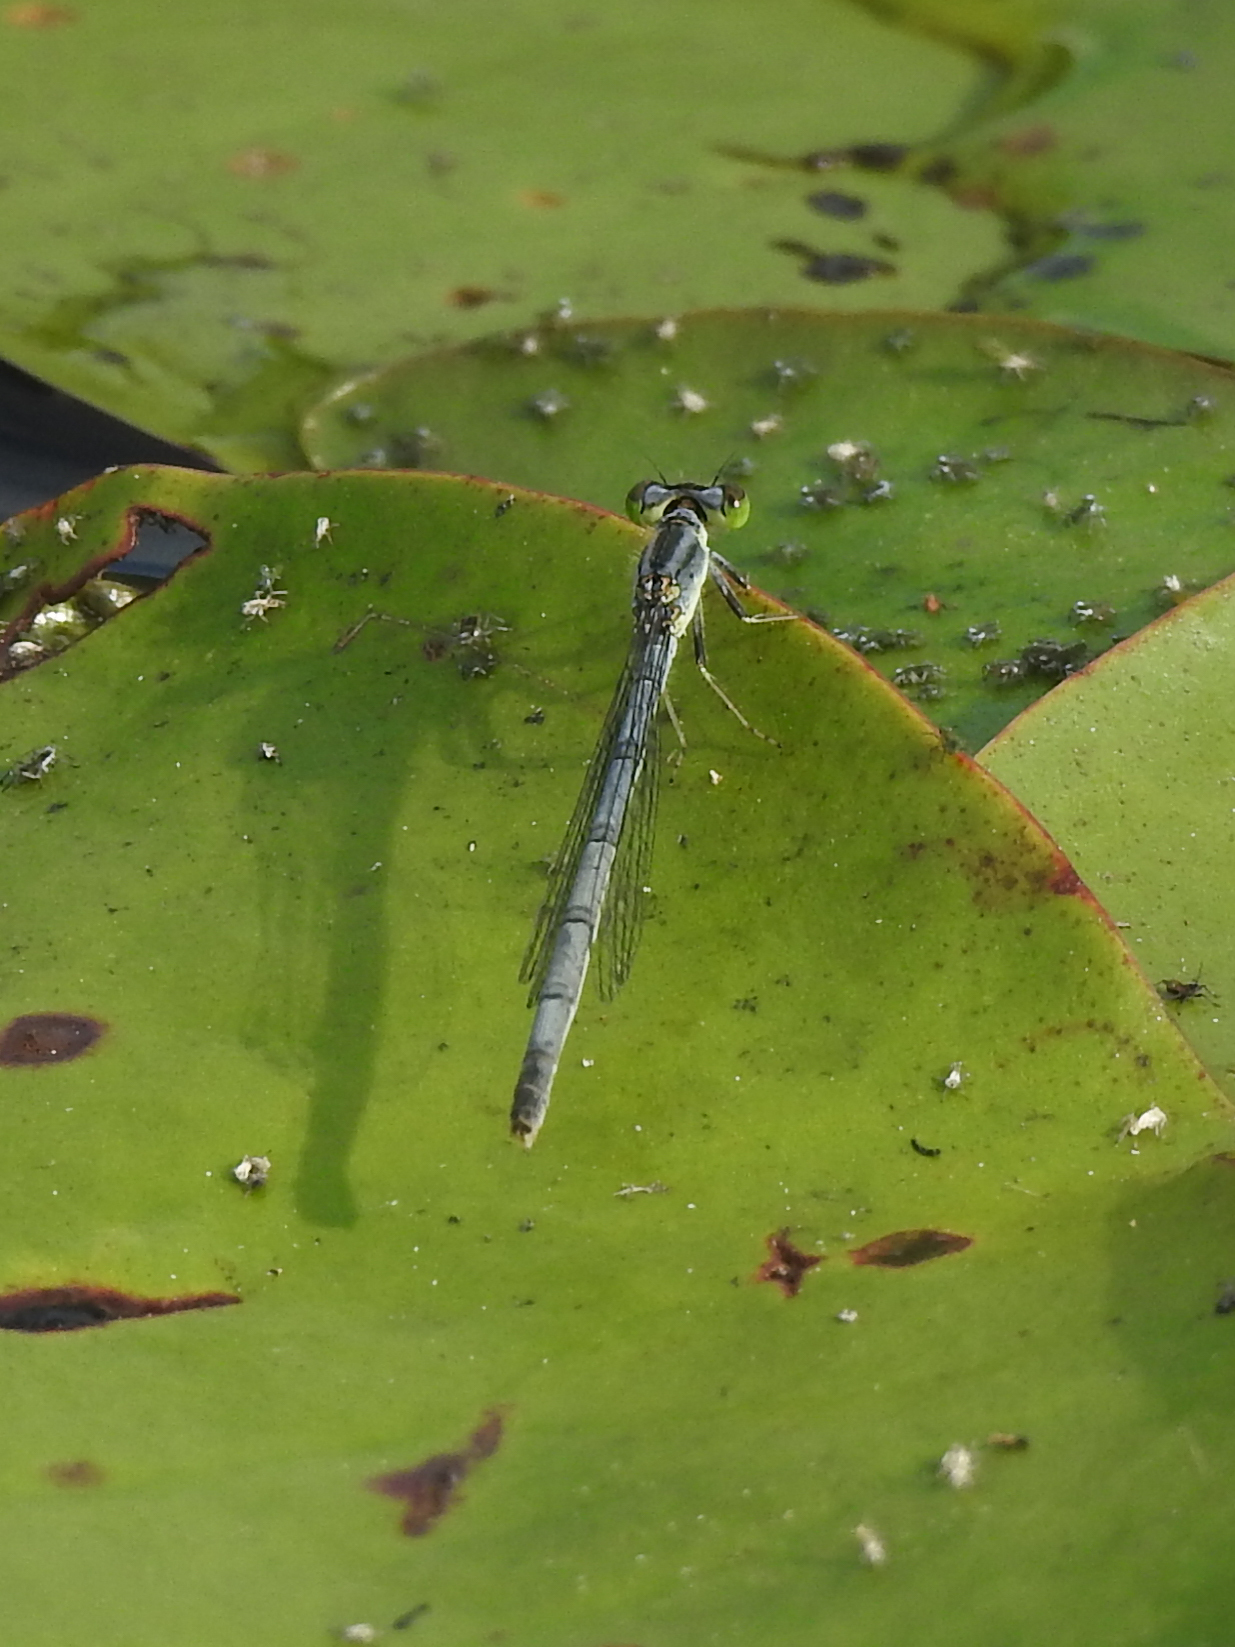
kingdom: Animalia
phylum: Arthropoda
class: Insecta
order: Odonata
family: Coenagrionidae
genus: Ischnura
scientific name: Ischnura verticalis
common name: Eastern forktail
